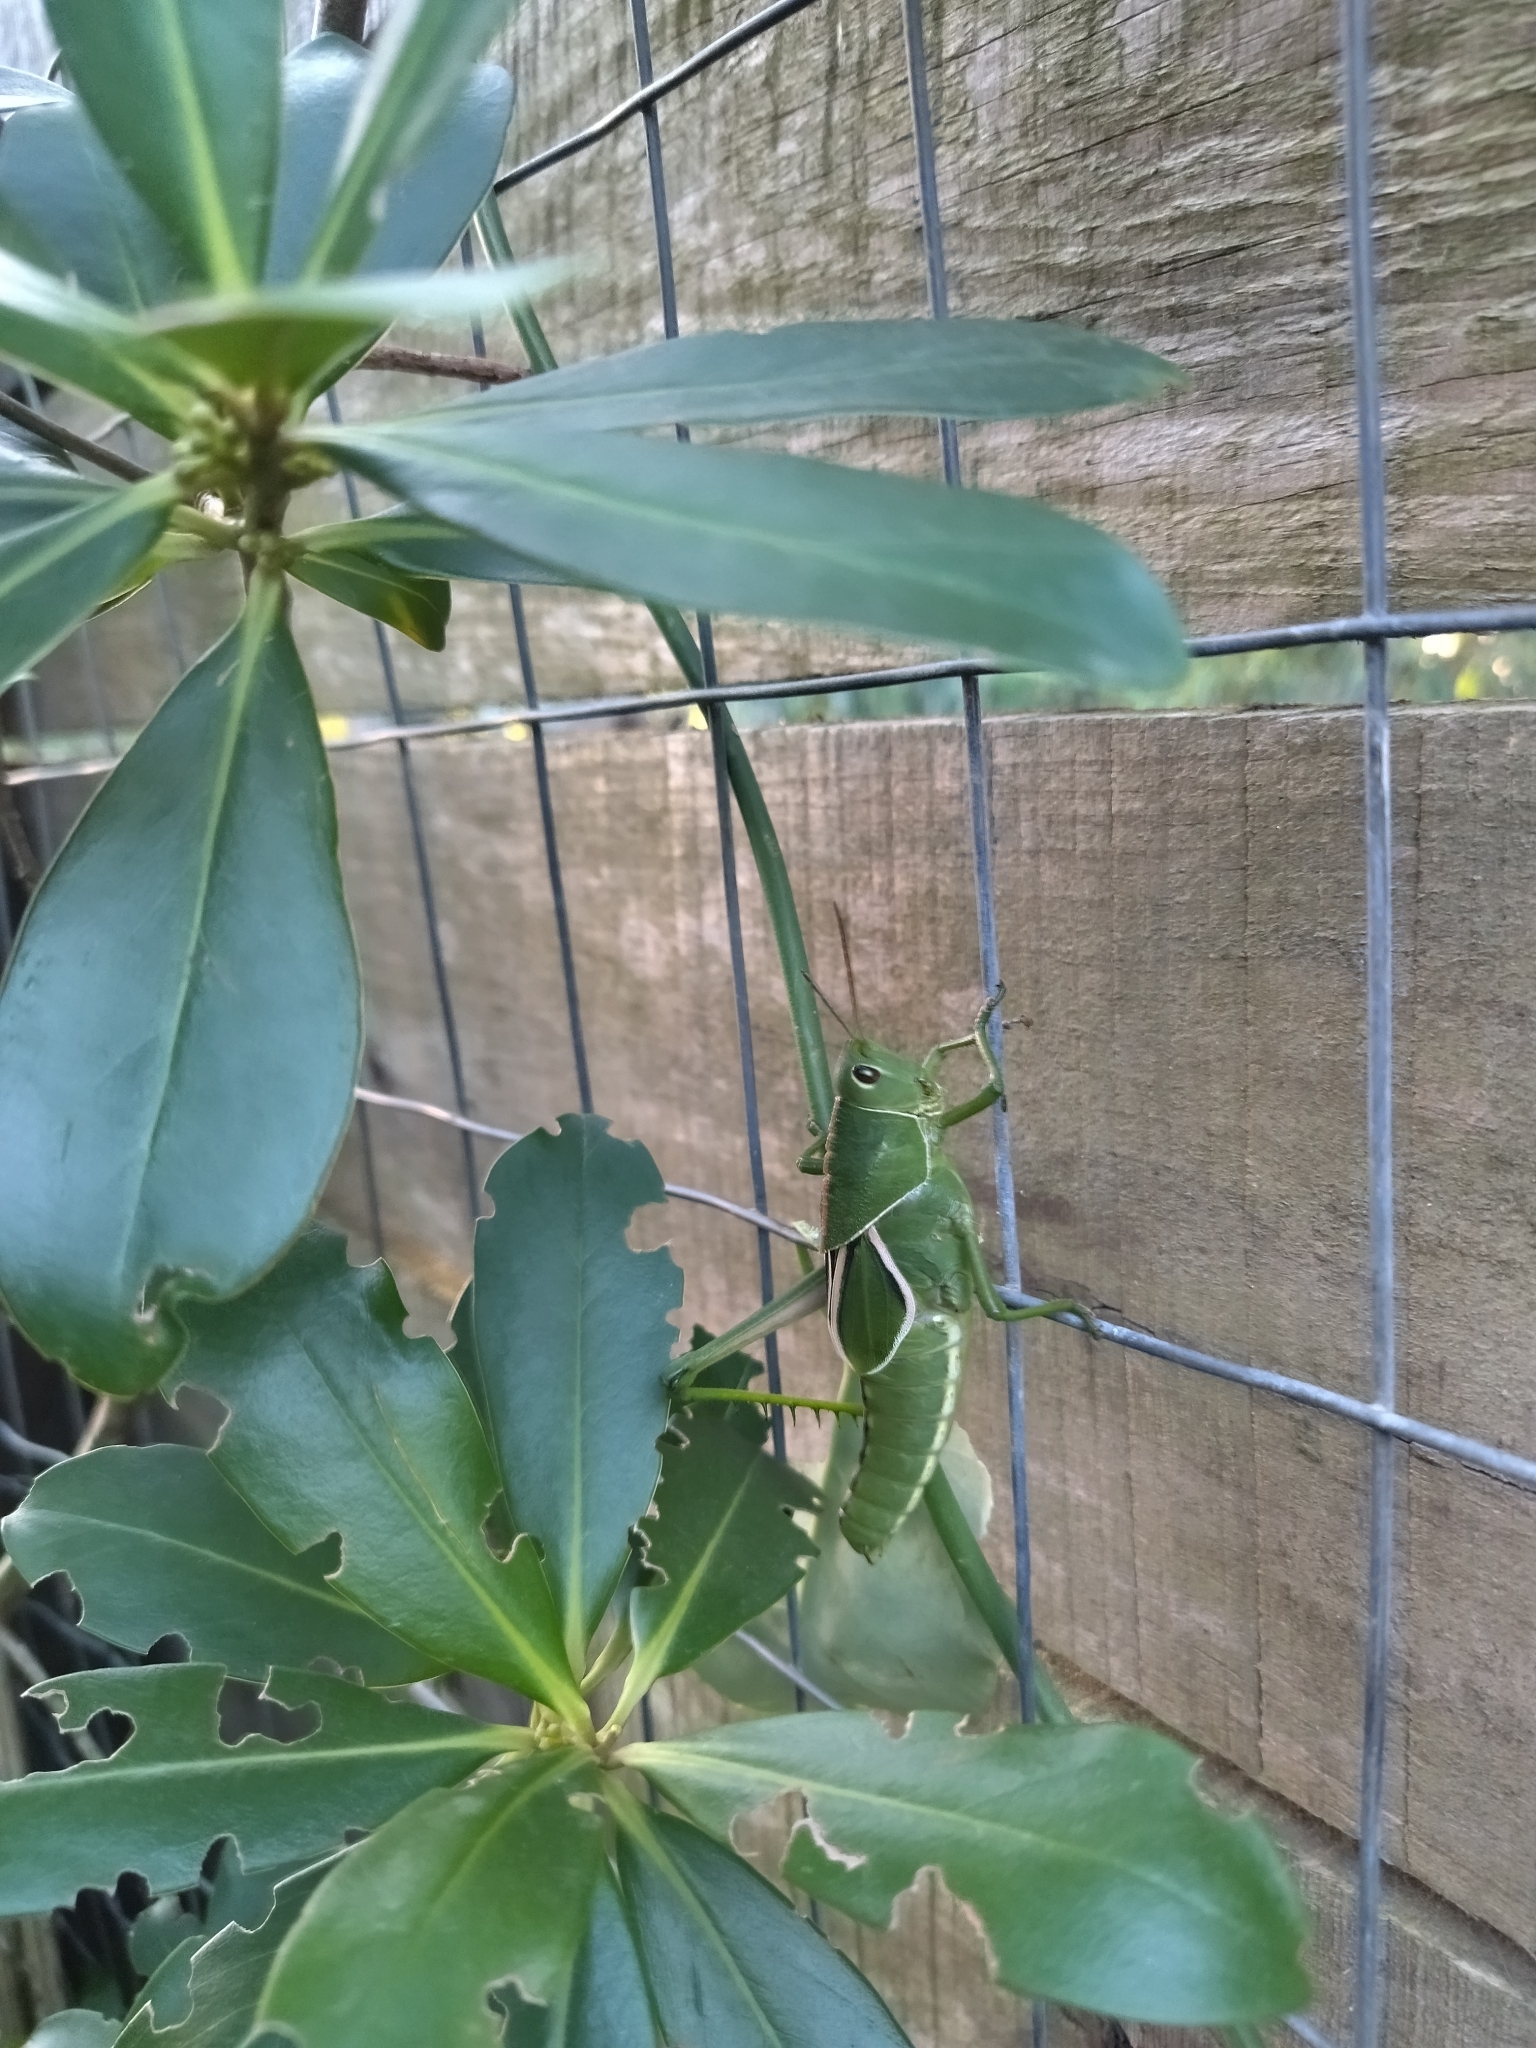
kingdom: Animalia
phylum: Arthropoda
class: Insecta
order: Orthoptera
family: Romaleidae
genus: Staleochlora
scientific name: Staleochlora viridicata
